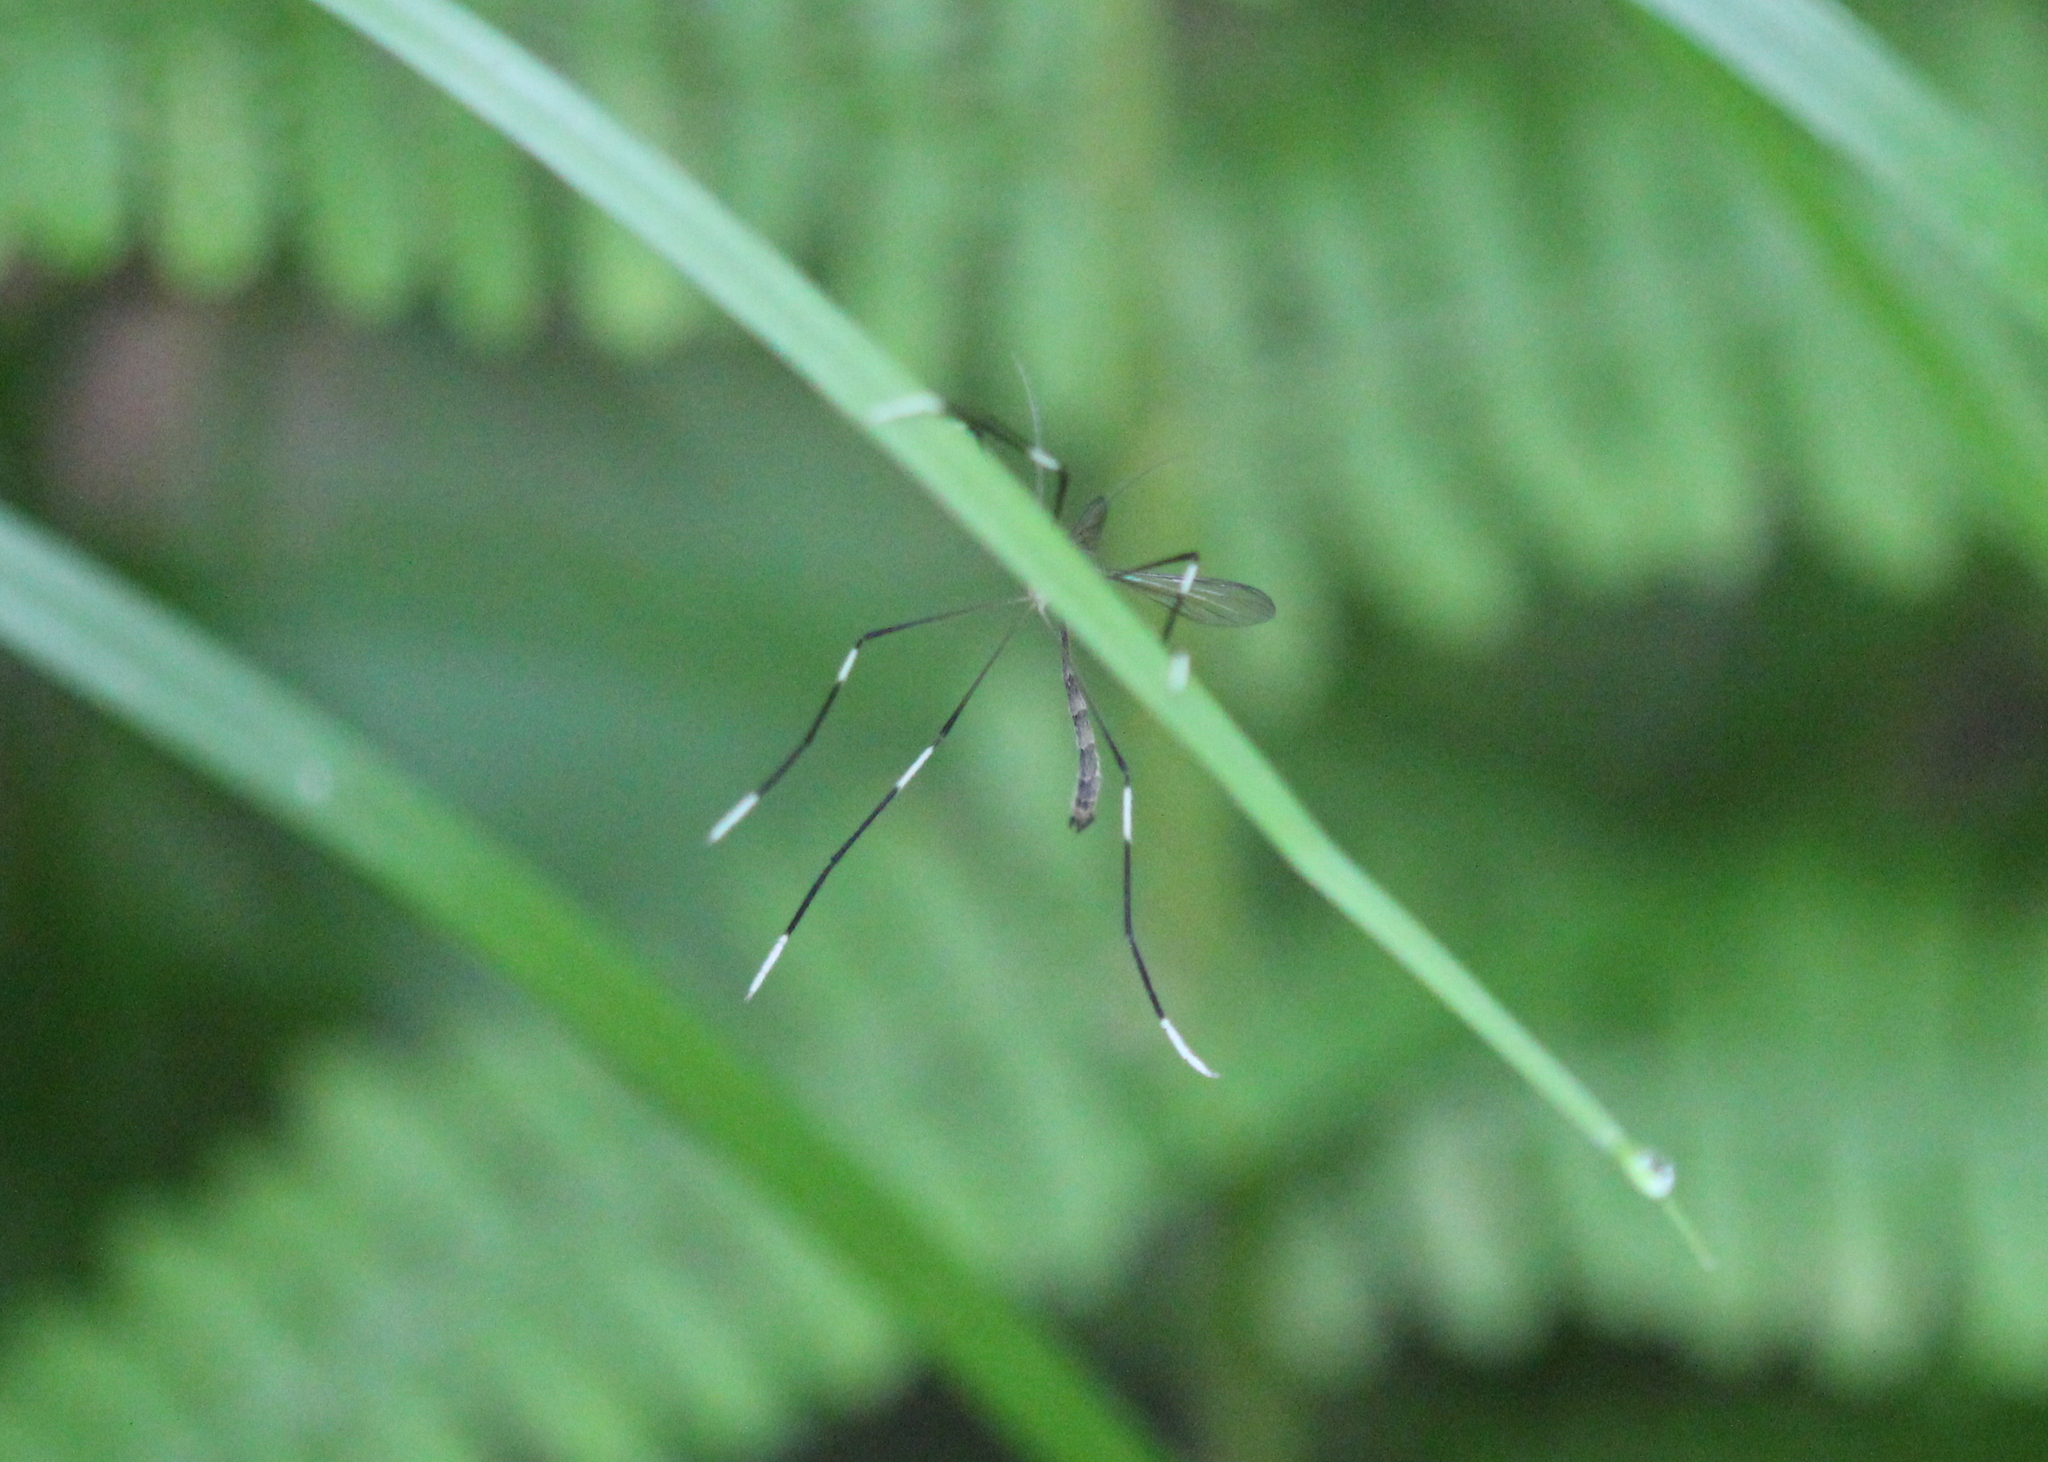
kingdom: Animalia
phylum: Arthropoda
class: Insecta
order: Diptera
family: Ptychopteridae
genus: Bittacomorpha
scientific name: Bittacomorpha clavipes
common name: Eastern phantom crane fly
